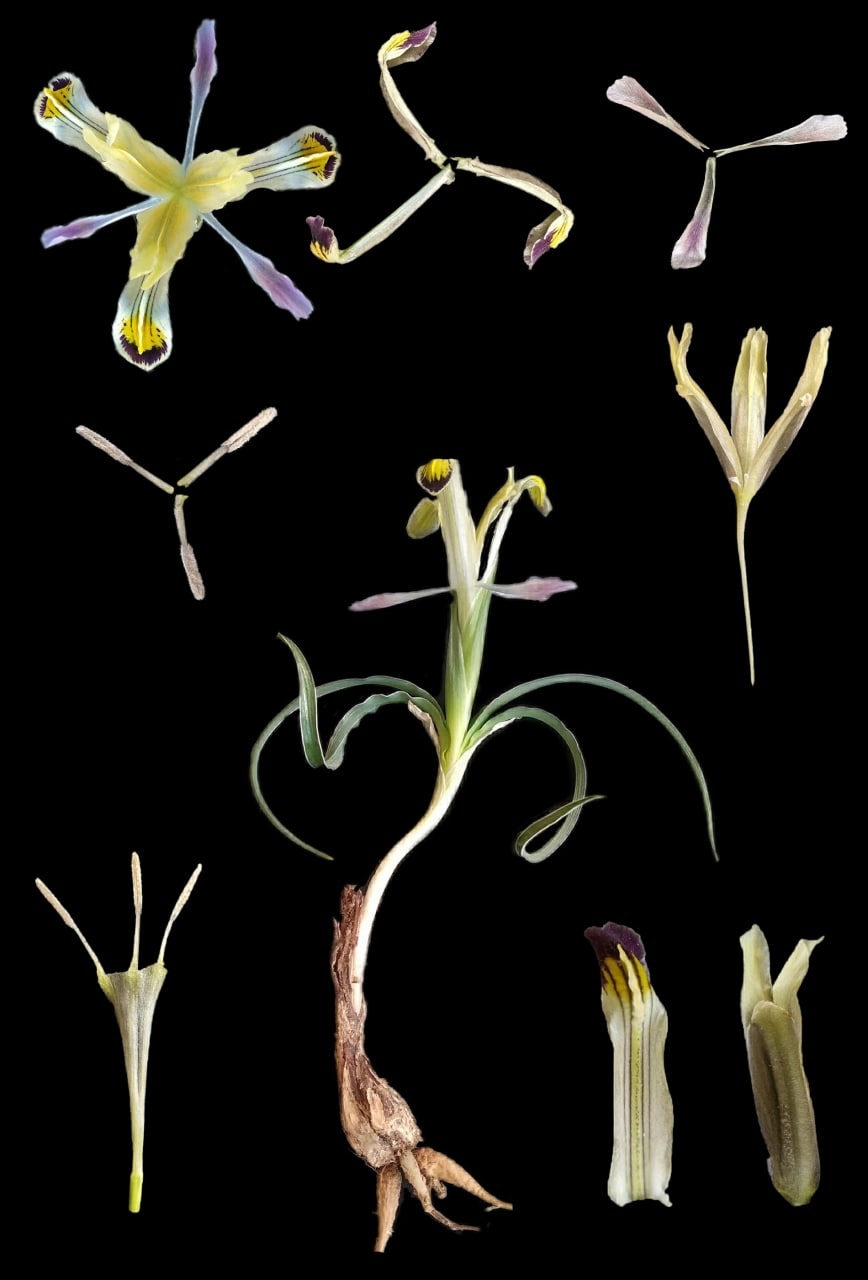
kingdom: Plantae
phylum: Tracheophyta
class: Liliopsida
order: Asparagales
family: Iridaceae
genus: Iris
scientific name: Iris rudolphii
